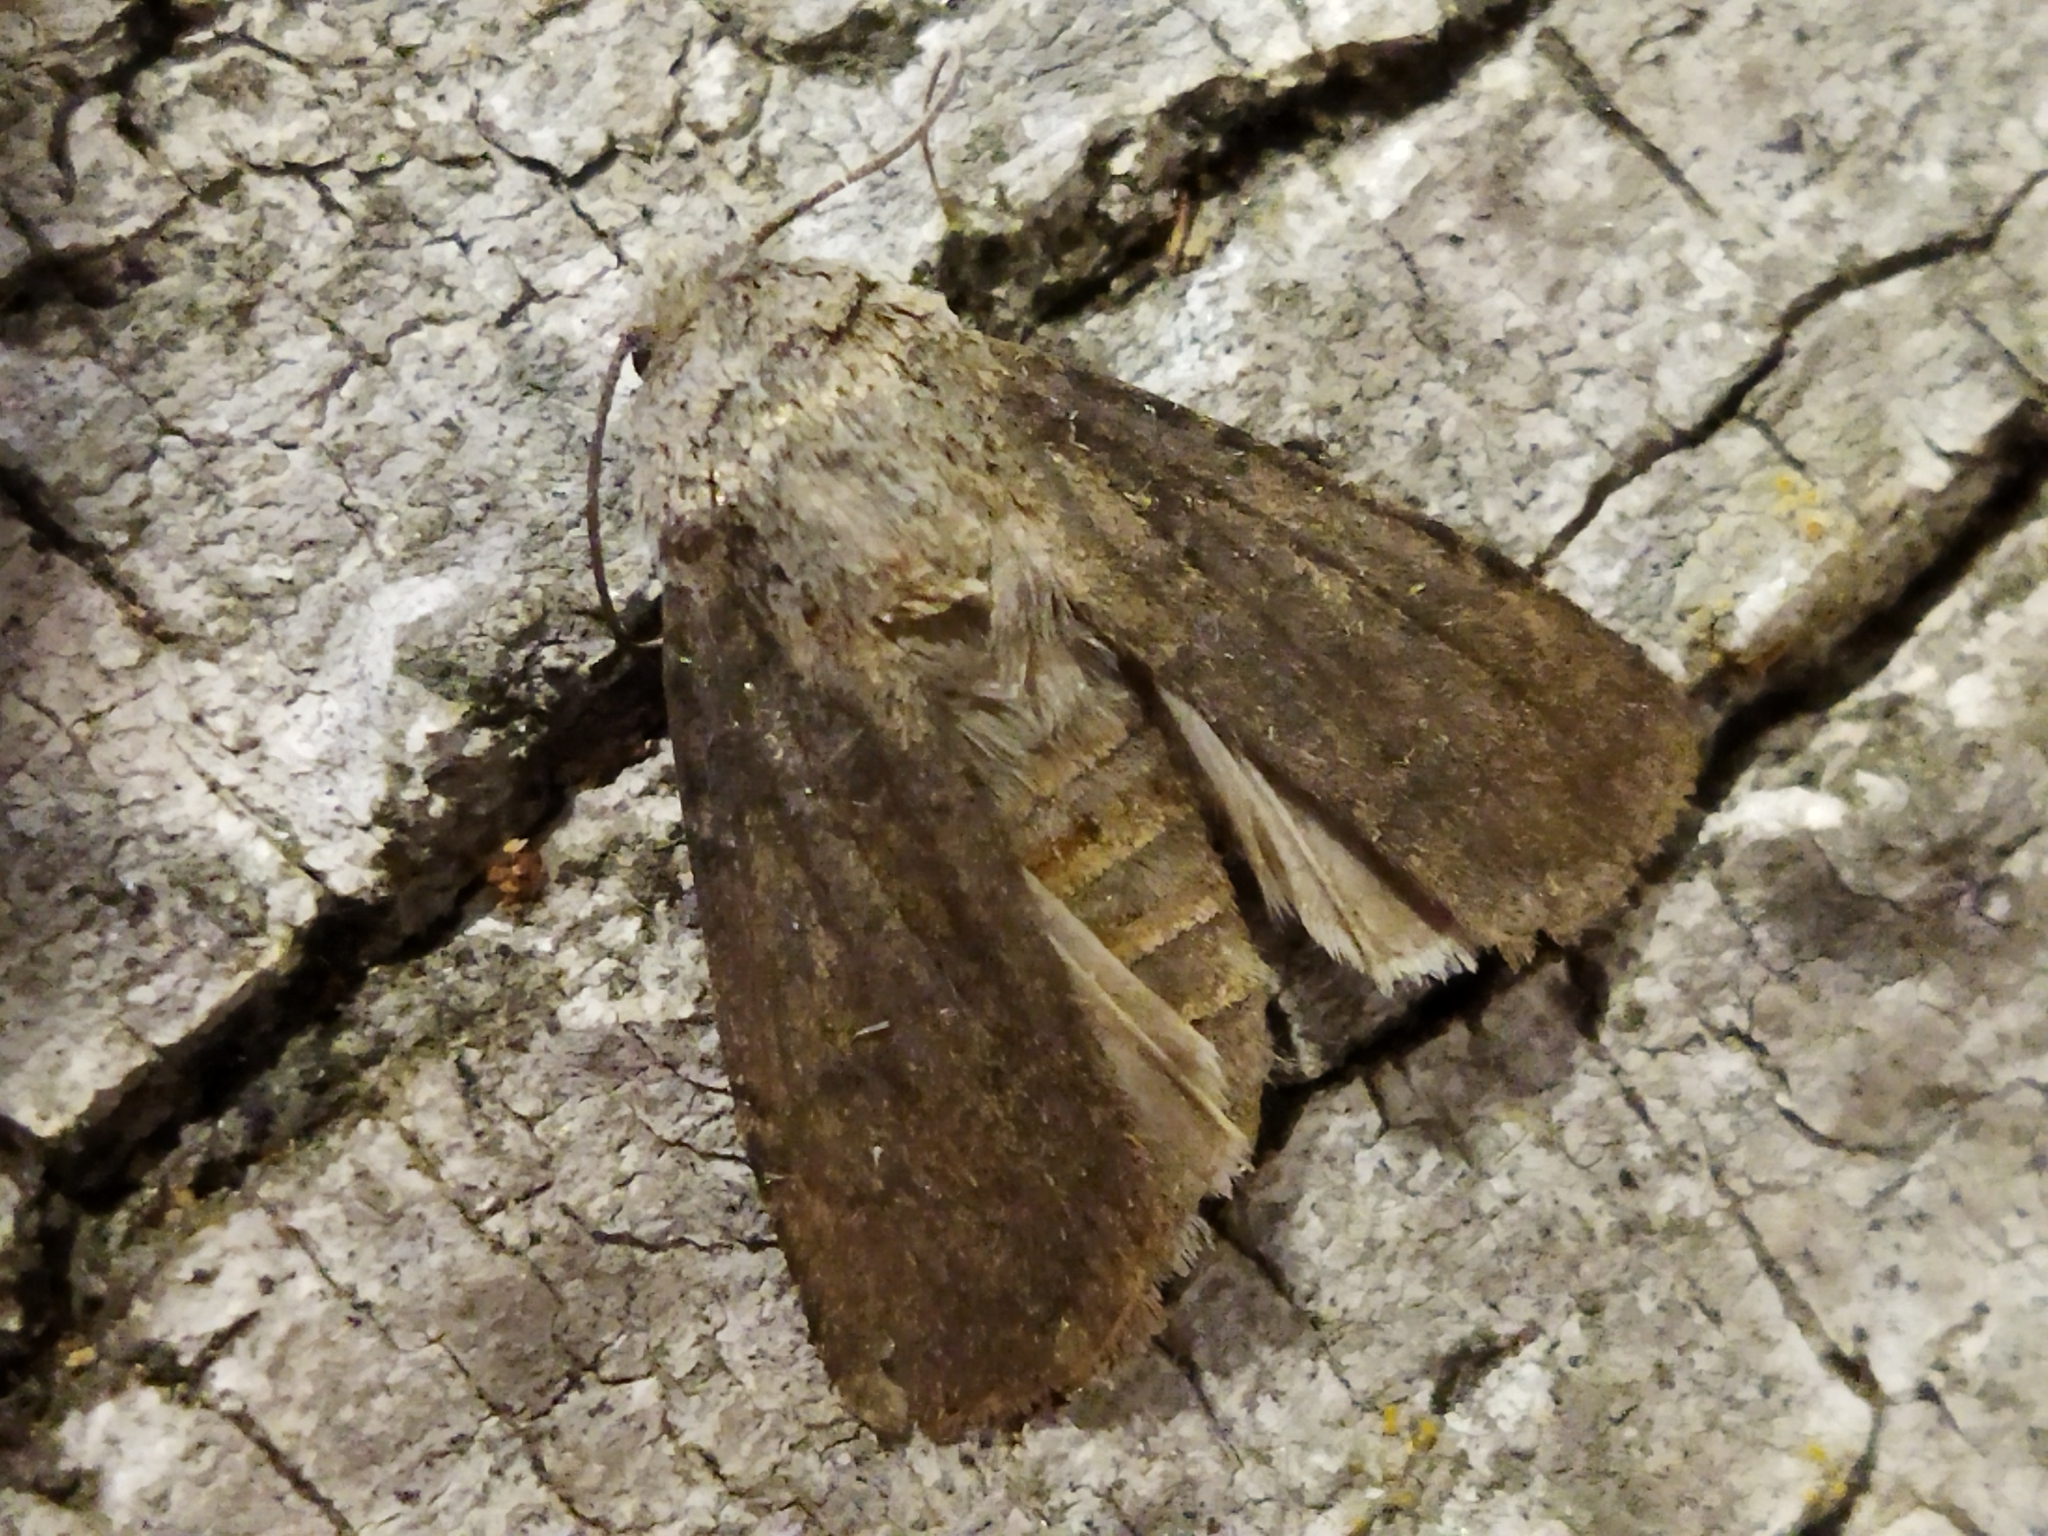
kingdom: Animalia
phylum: Arthropoda
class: Insecta
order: Lepidoptera
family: Noctuidae
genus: Agrotis
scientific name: Agrotis segetum
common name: Turnip moth
